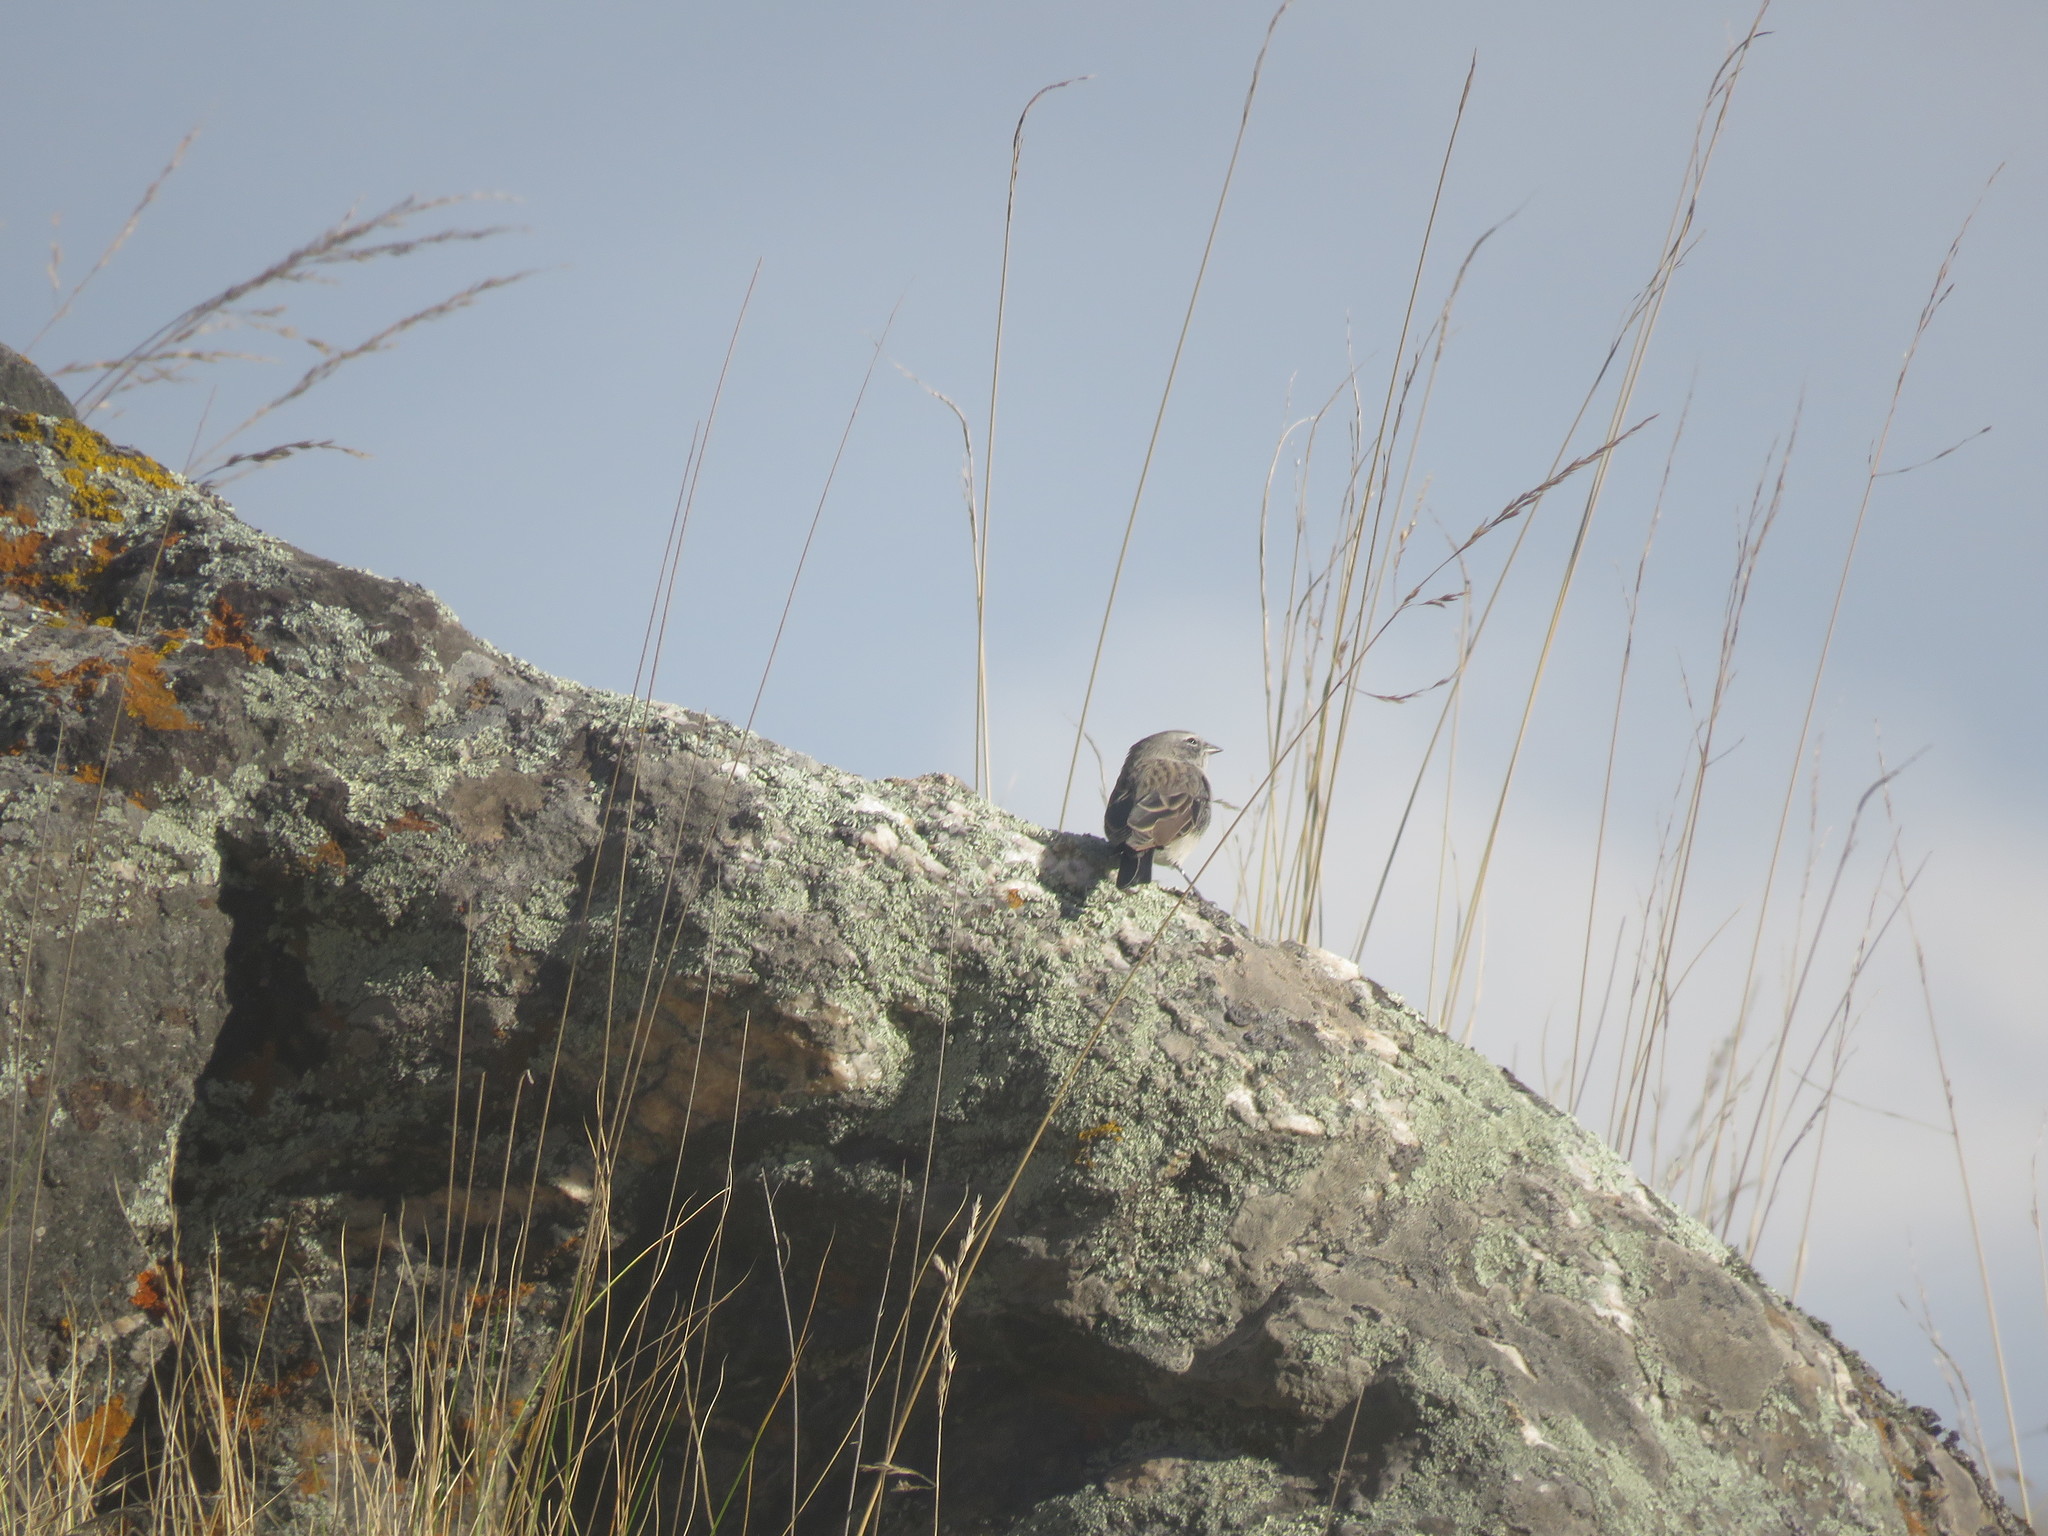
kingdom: Animalia
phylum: Chordata
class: Aves
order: Passeriformes
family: Thraupidae
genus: Geospizopsis
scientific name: Geospizopsis plebejus
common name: Ash-breasted sierra-finch
